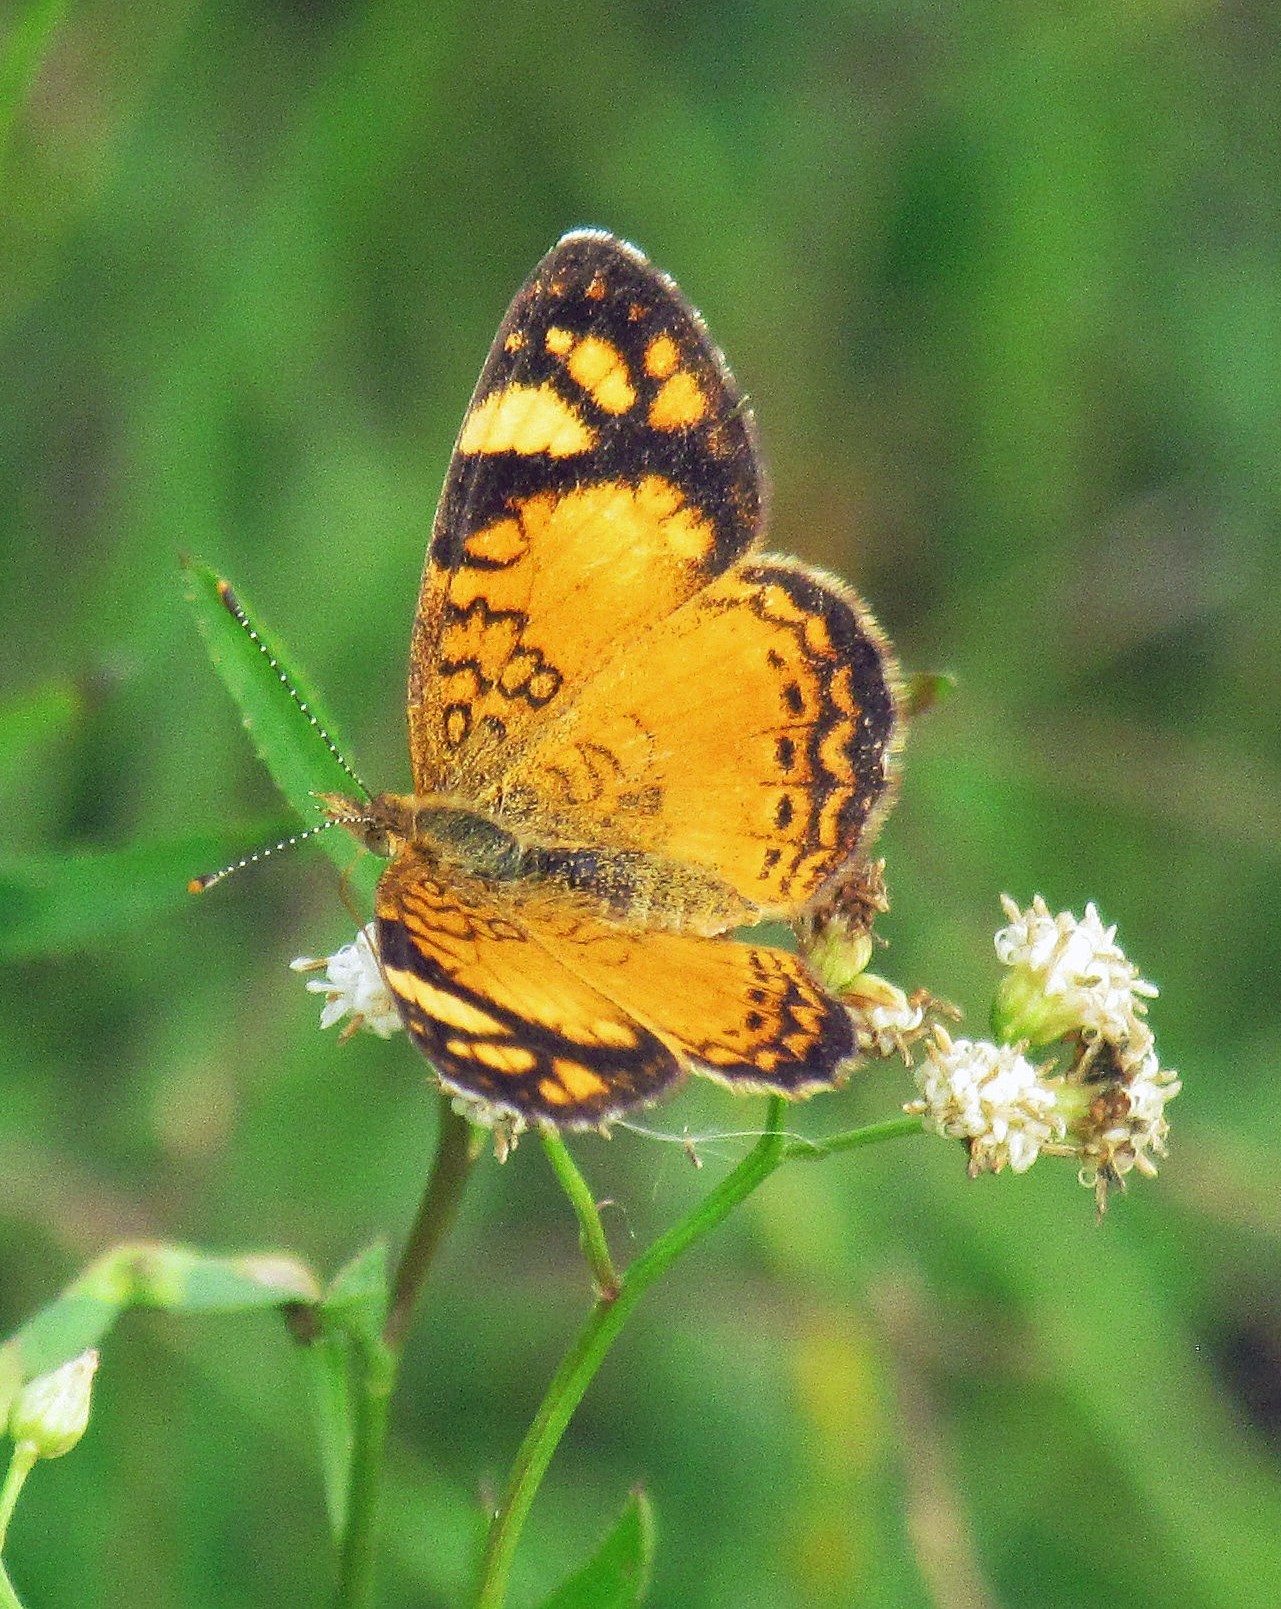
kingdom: Animalia
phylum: Arthropoda
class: Insecta
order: Lepidoptera
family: Nymphalidae
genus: Tegosa
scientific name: Tegosa orobia
